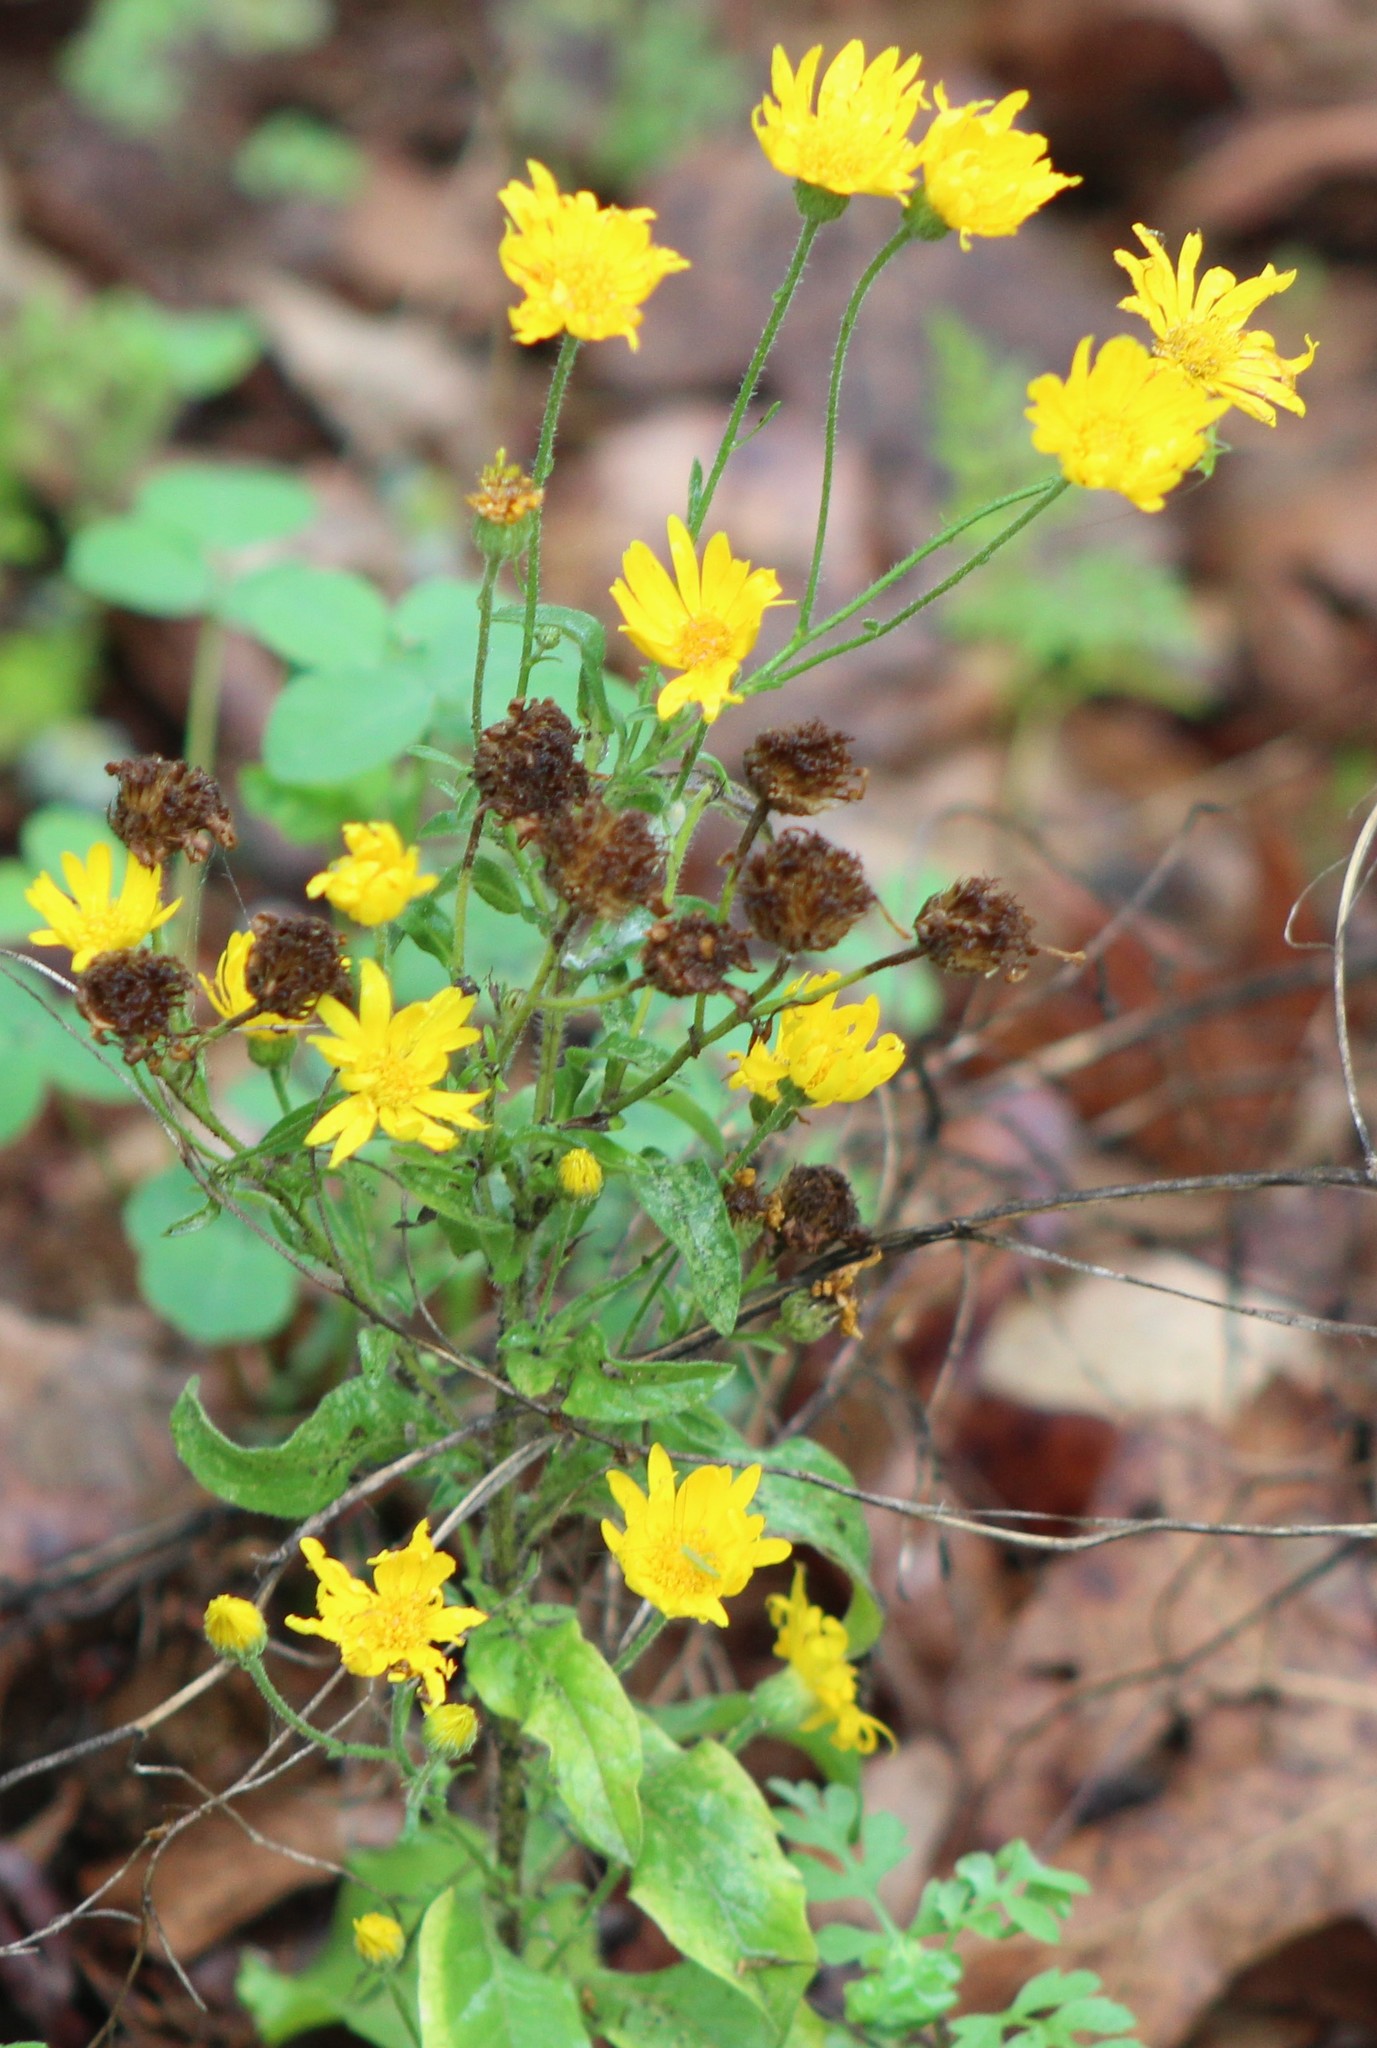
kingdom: Plantae
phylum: Tracheophyta
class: Magnoliopsida
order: Asterales
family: Asteraceae
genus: Heterotheca
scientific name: Heterotheca subaxillaris
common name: Camphorweed
